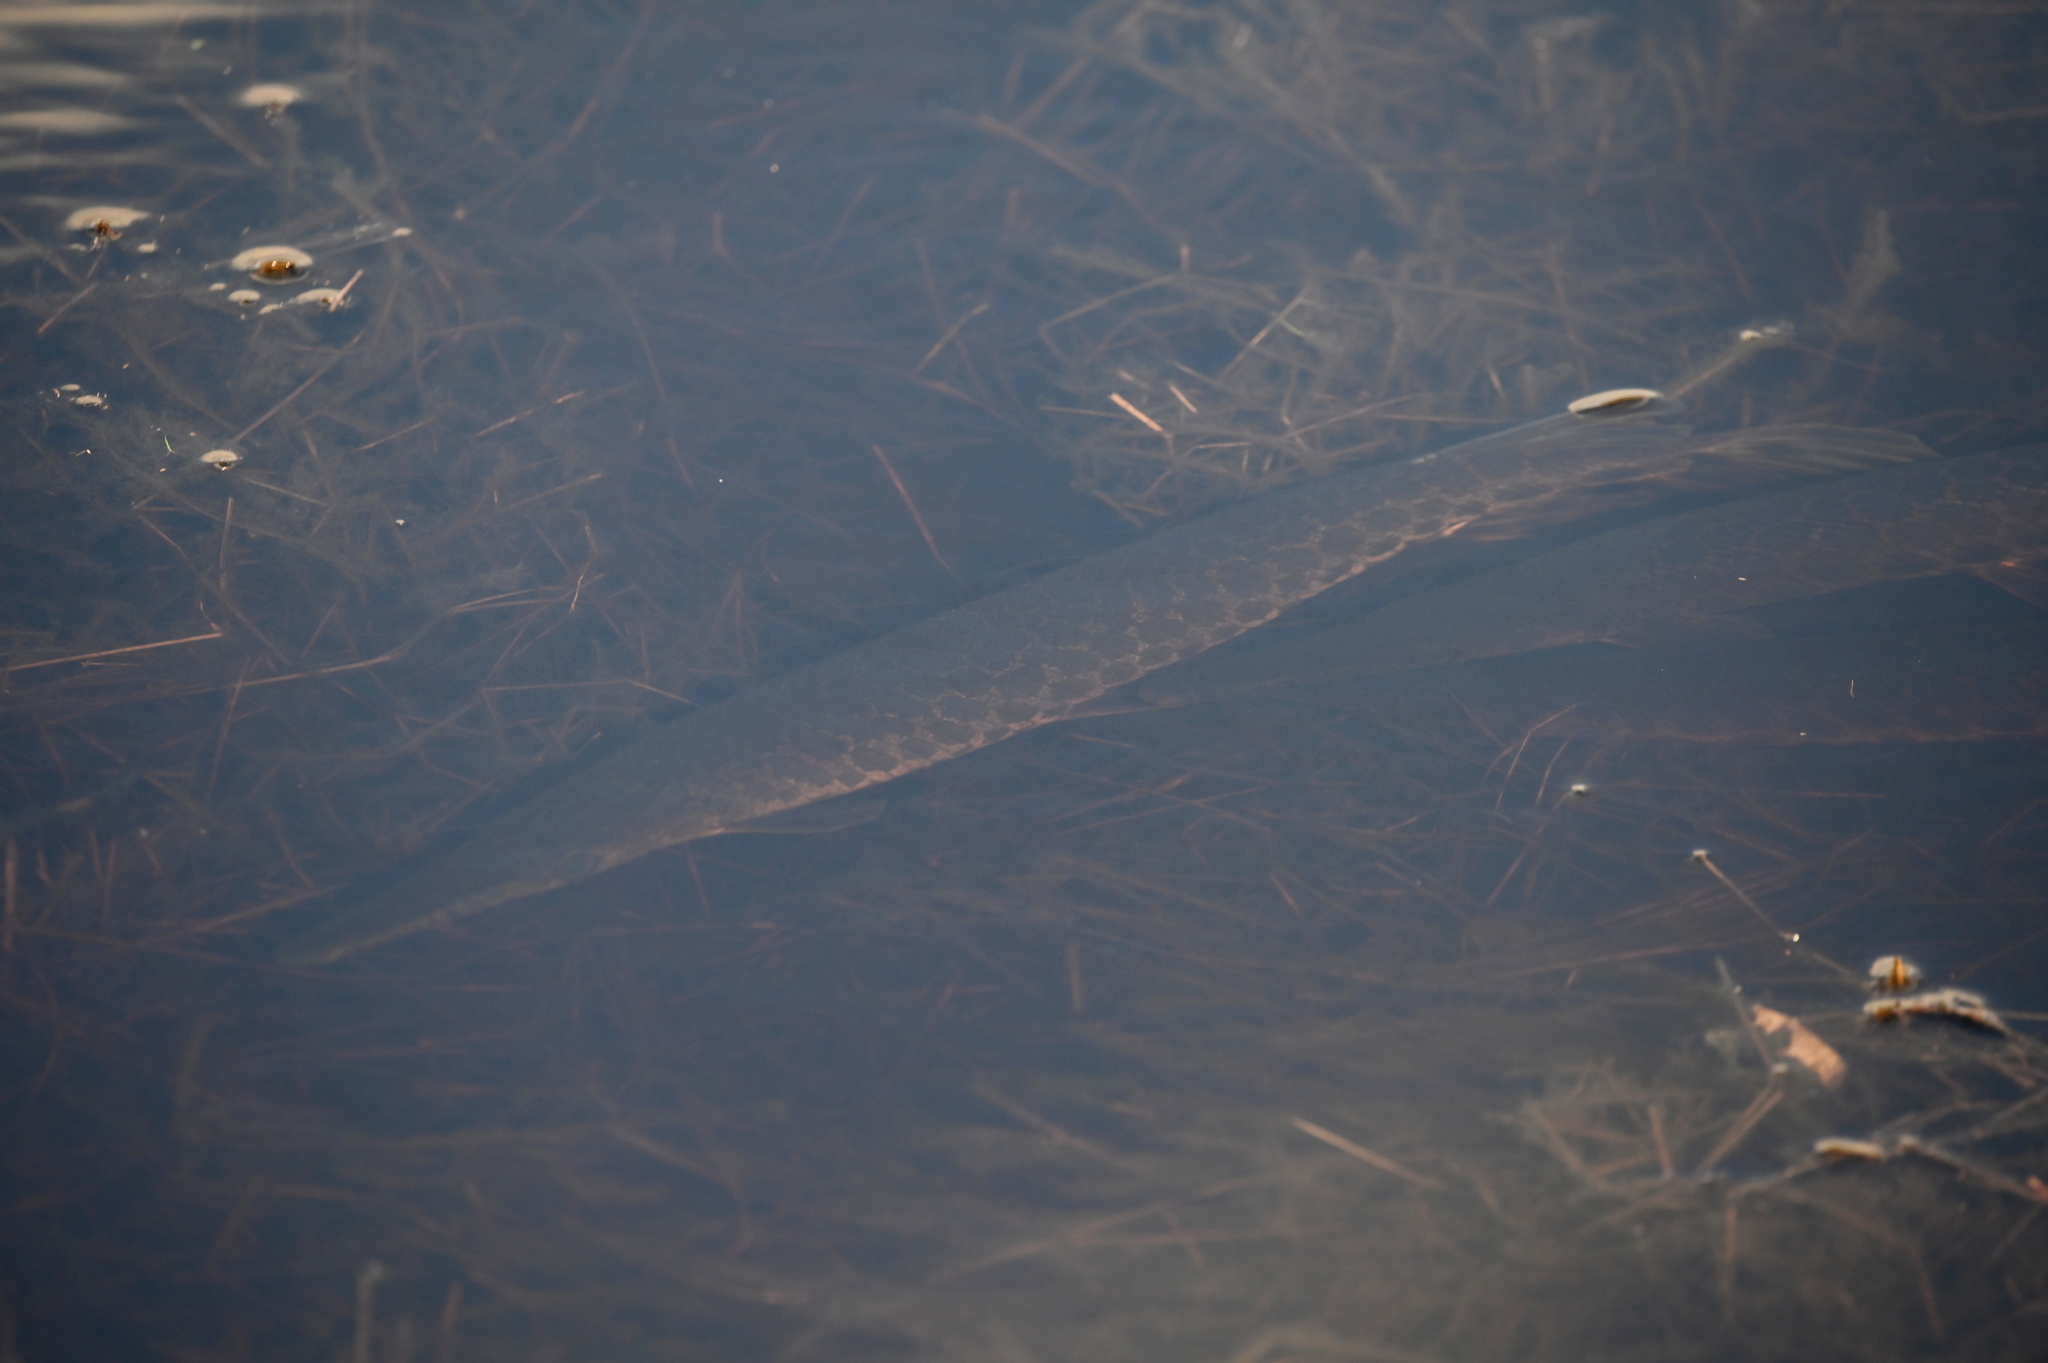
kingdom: Animalia
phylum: Chordata
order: Lepisosteiformes
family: Lepisosteidae
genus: Lepisosteus
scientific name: Lepisosteus oculatus
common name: Spotted gar
